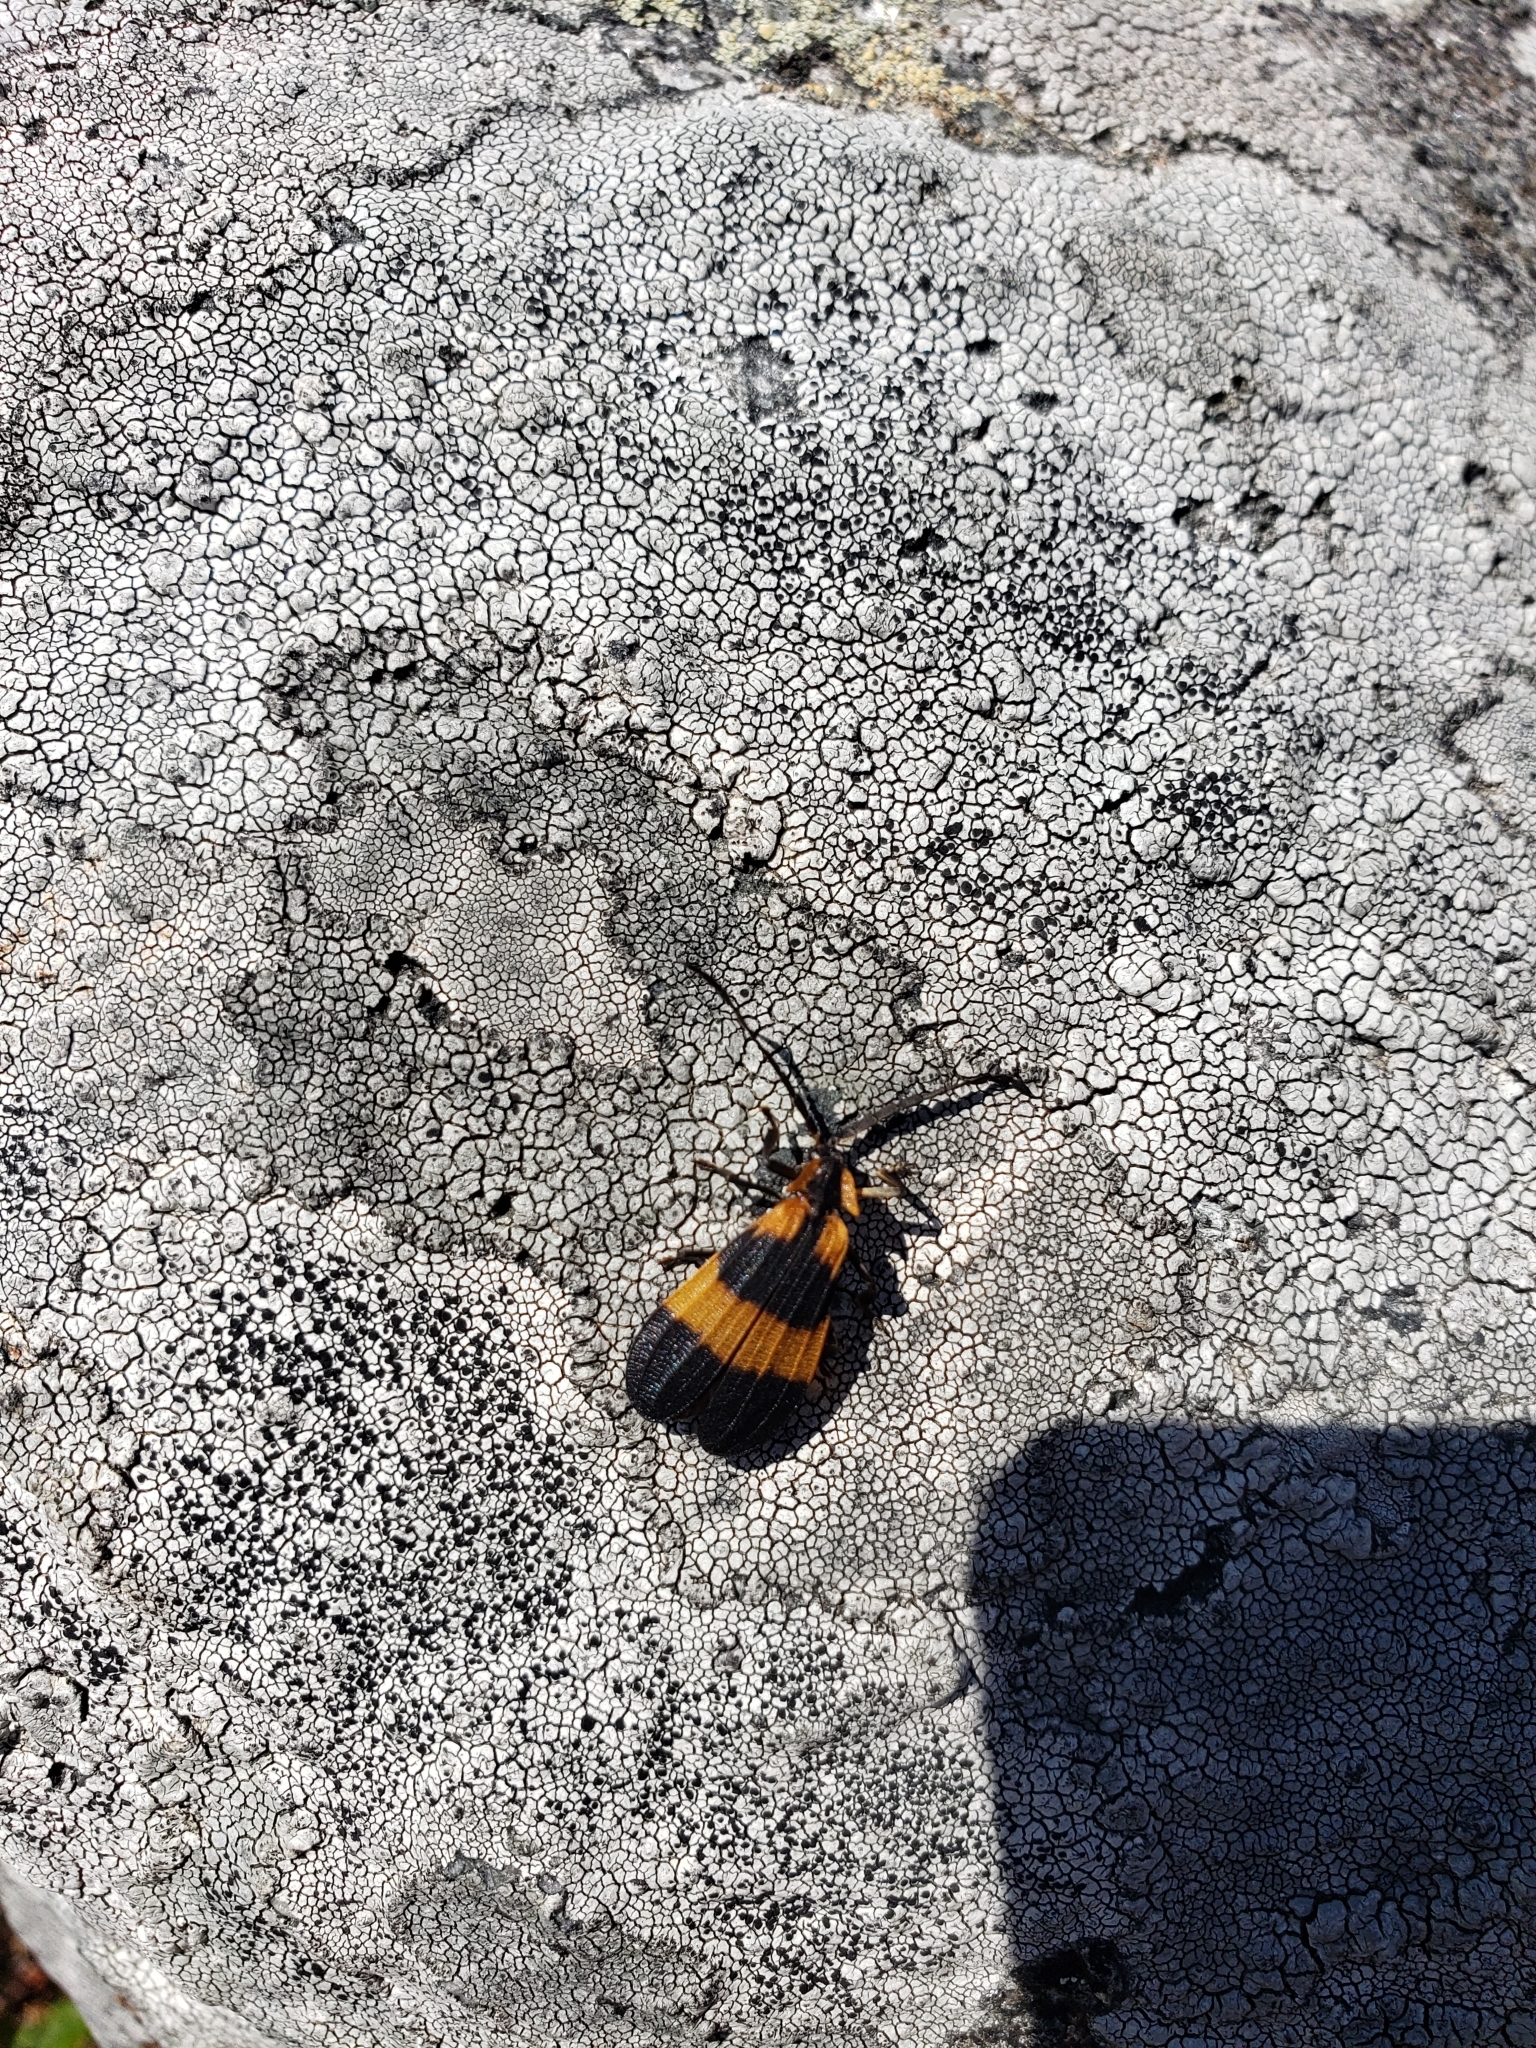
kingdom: Animalia
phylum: Arthropoda
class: Insecta
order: Coleoptera
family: Lycidae
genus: Calopteron
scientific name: Calopteron reticulatum
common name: Banded net-winged beetle
